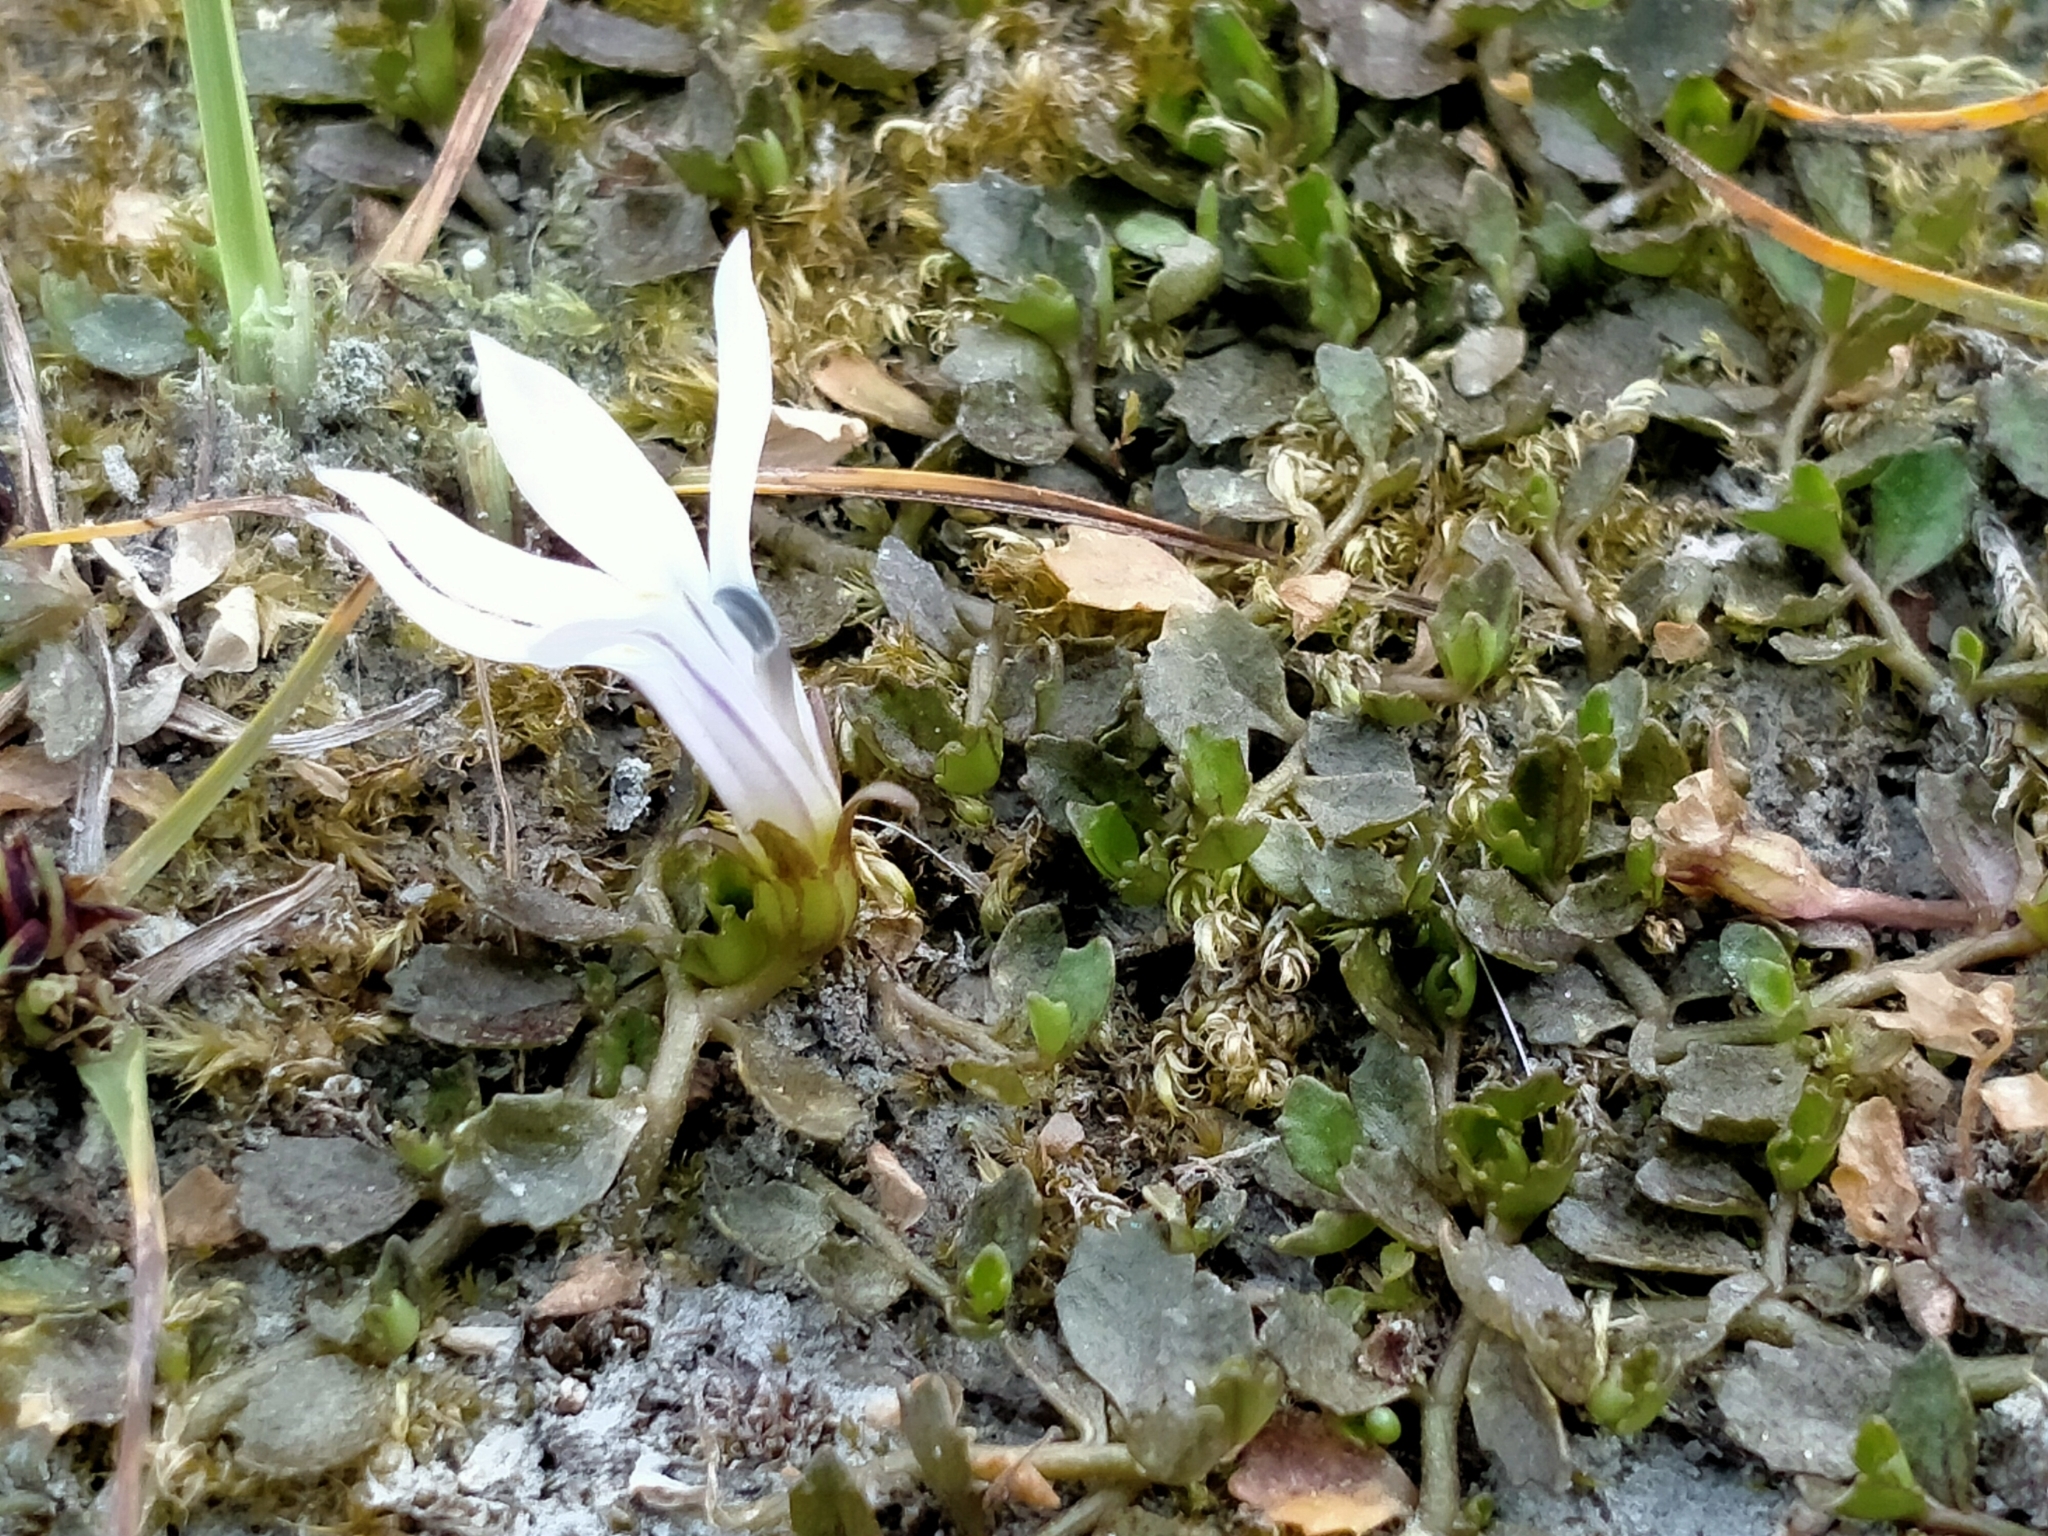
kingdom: Plantae
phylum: Tracheophyta
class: Magnoliopsida
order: Asterales
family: Campanulaceae
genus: Lobelia
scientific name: Lobelia perpusilla
